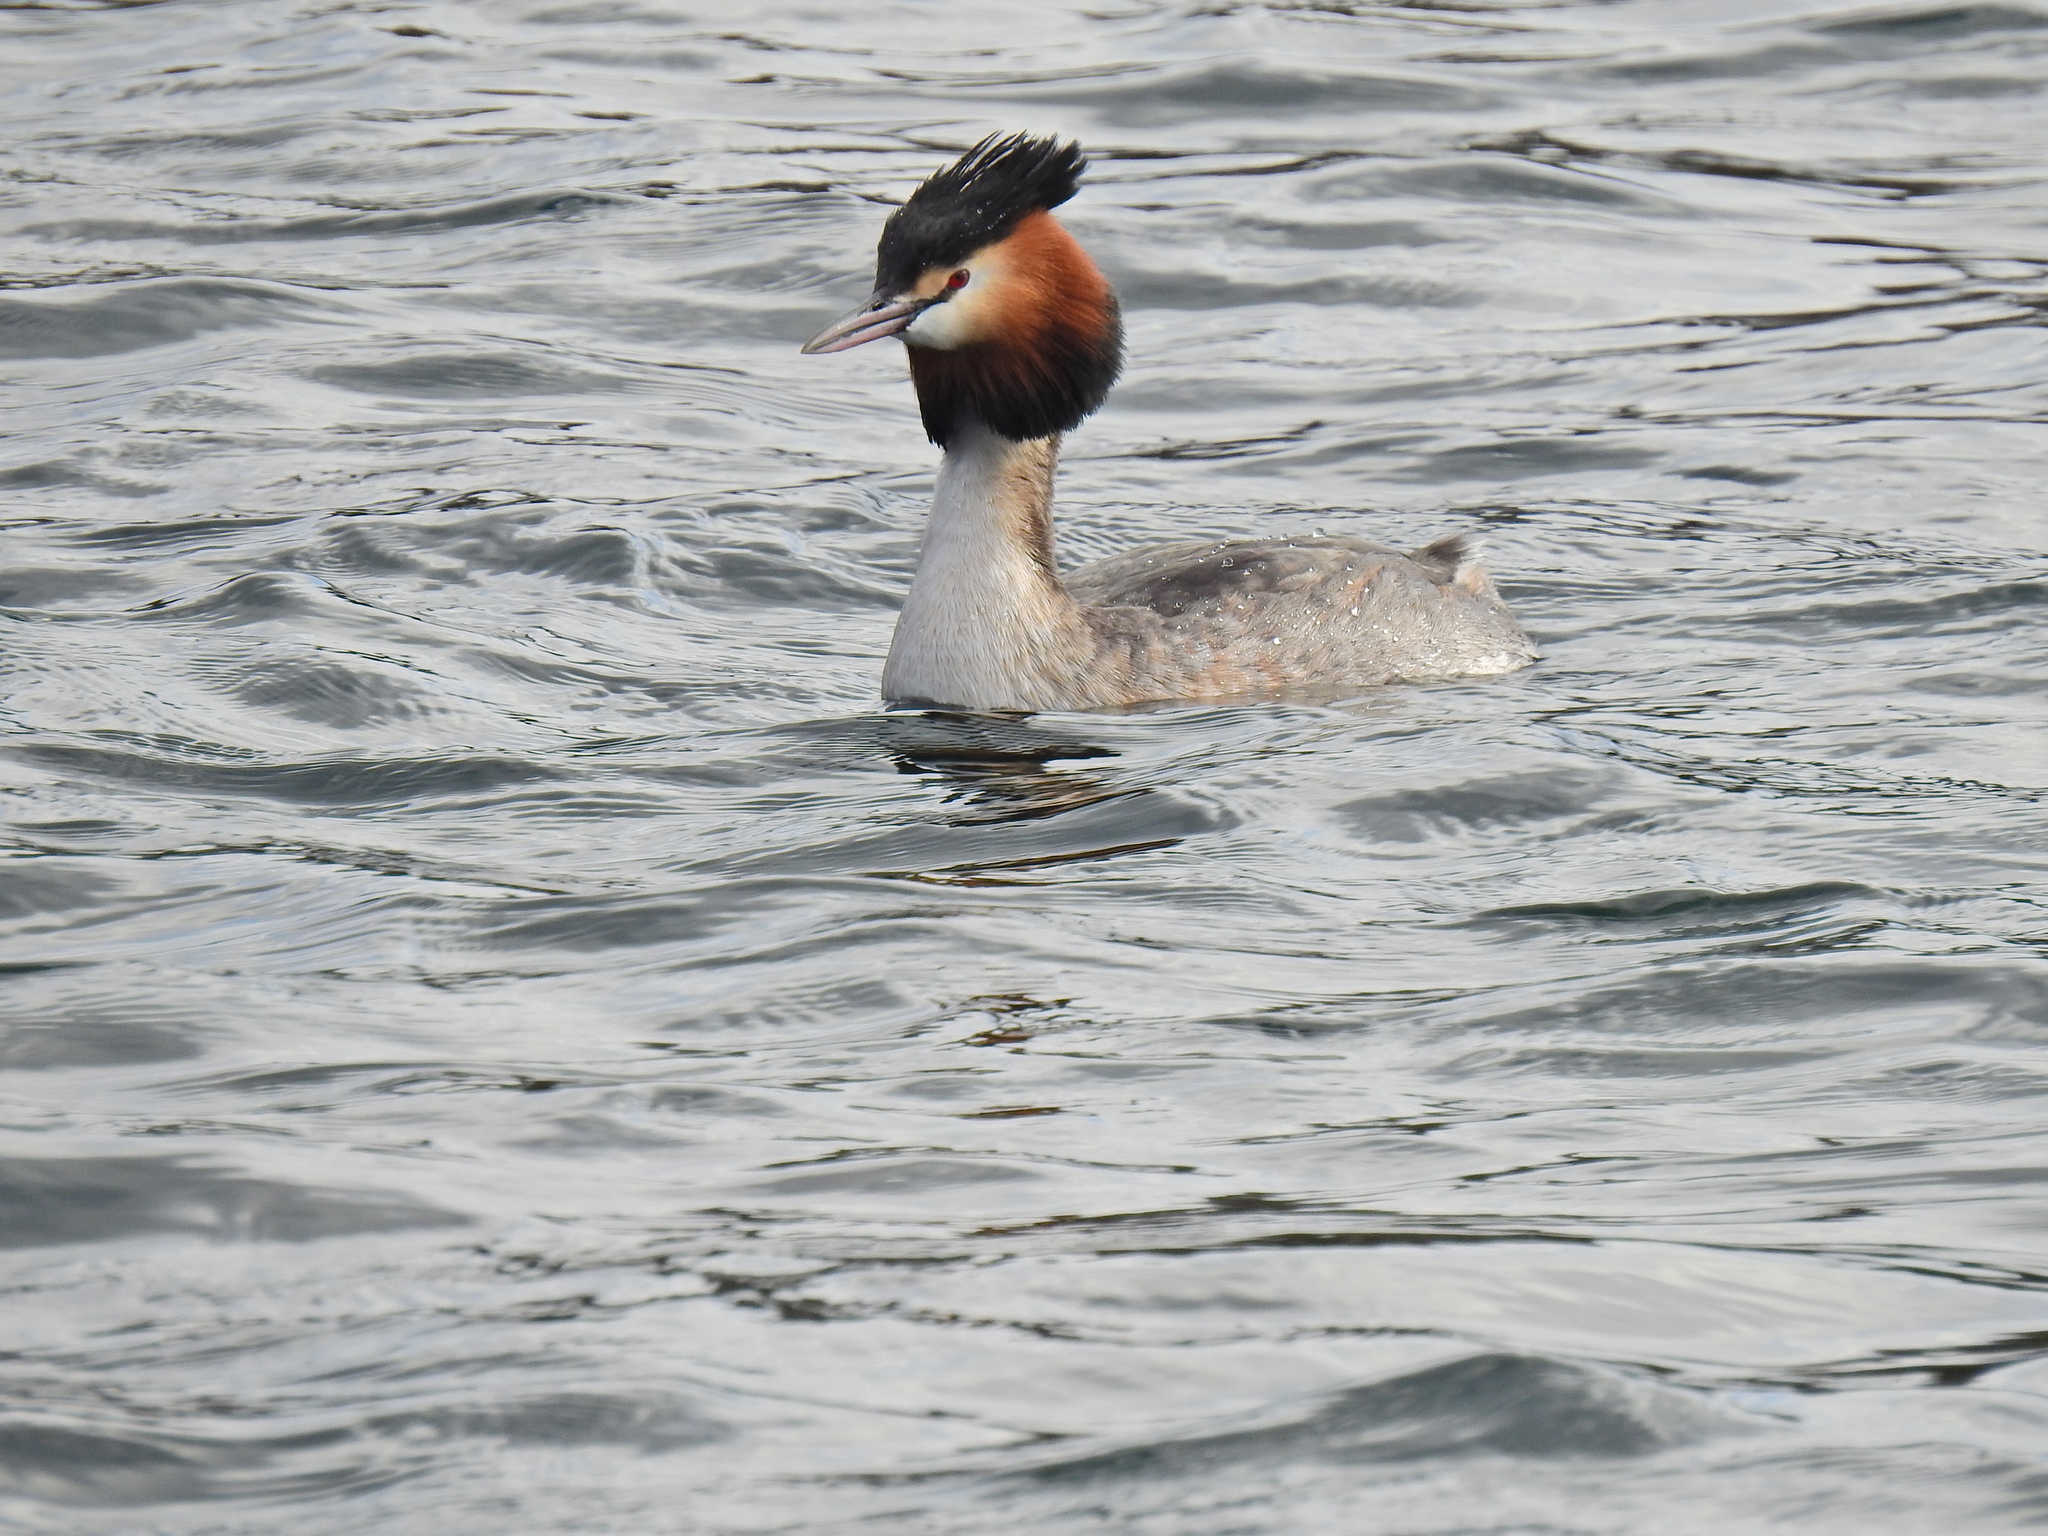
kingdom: Animalia
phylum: Chordata
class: Aves
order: Podicipediformes
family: Podicipedidae
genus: Podiceps
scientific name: Podiceps cristatus
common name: Great crested grebe
